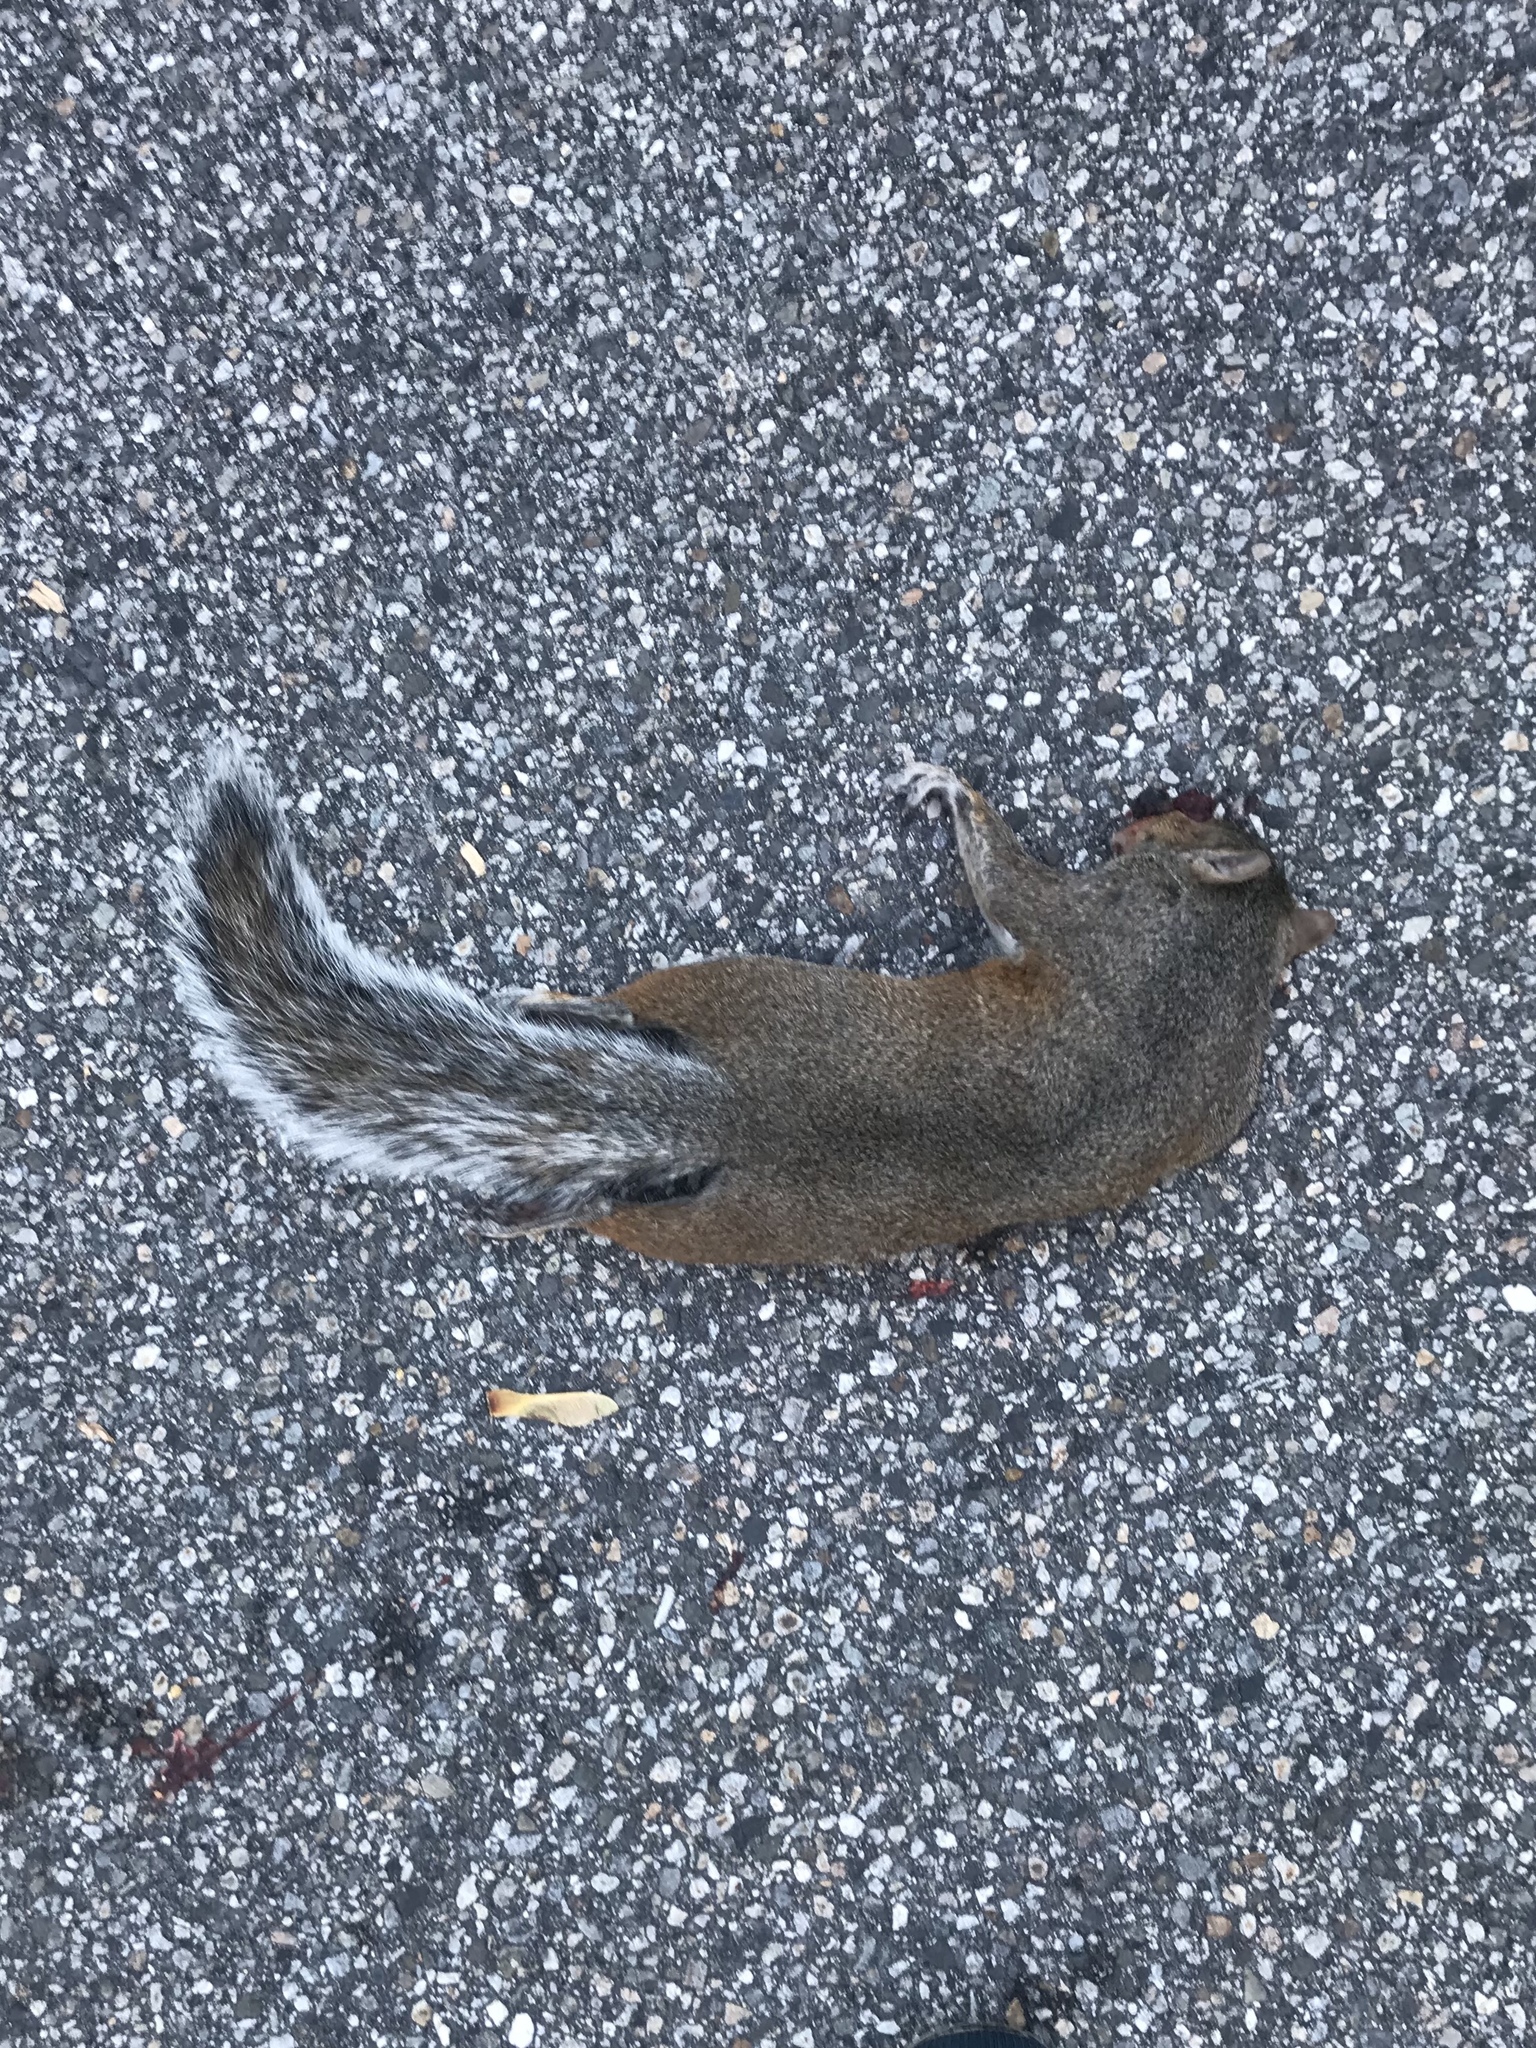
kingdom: Animalia
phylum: Chordata
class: Mammalia
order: Rodentia
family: Sciuridae
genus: Sciurus
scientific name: Sciurus carolinensis
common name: Eastern gray squirrel
